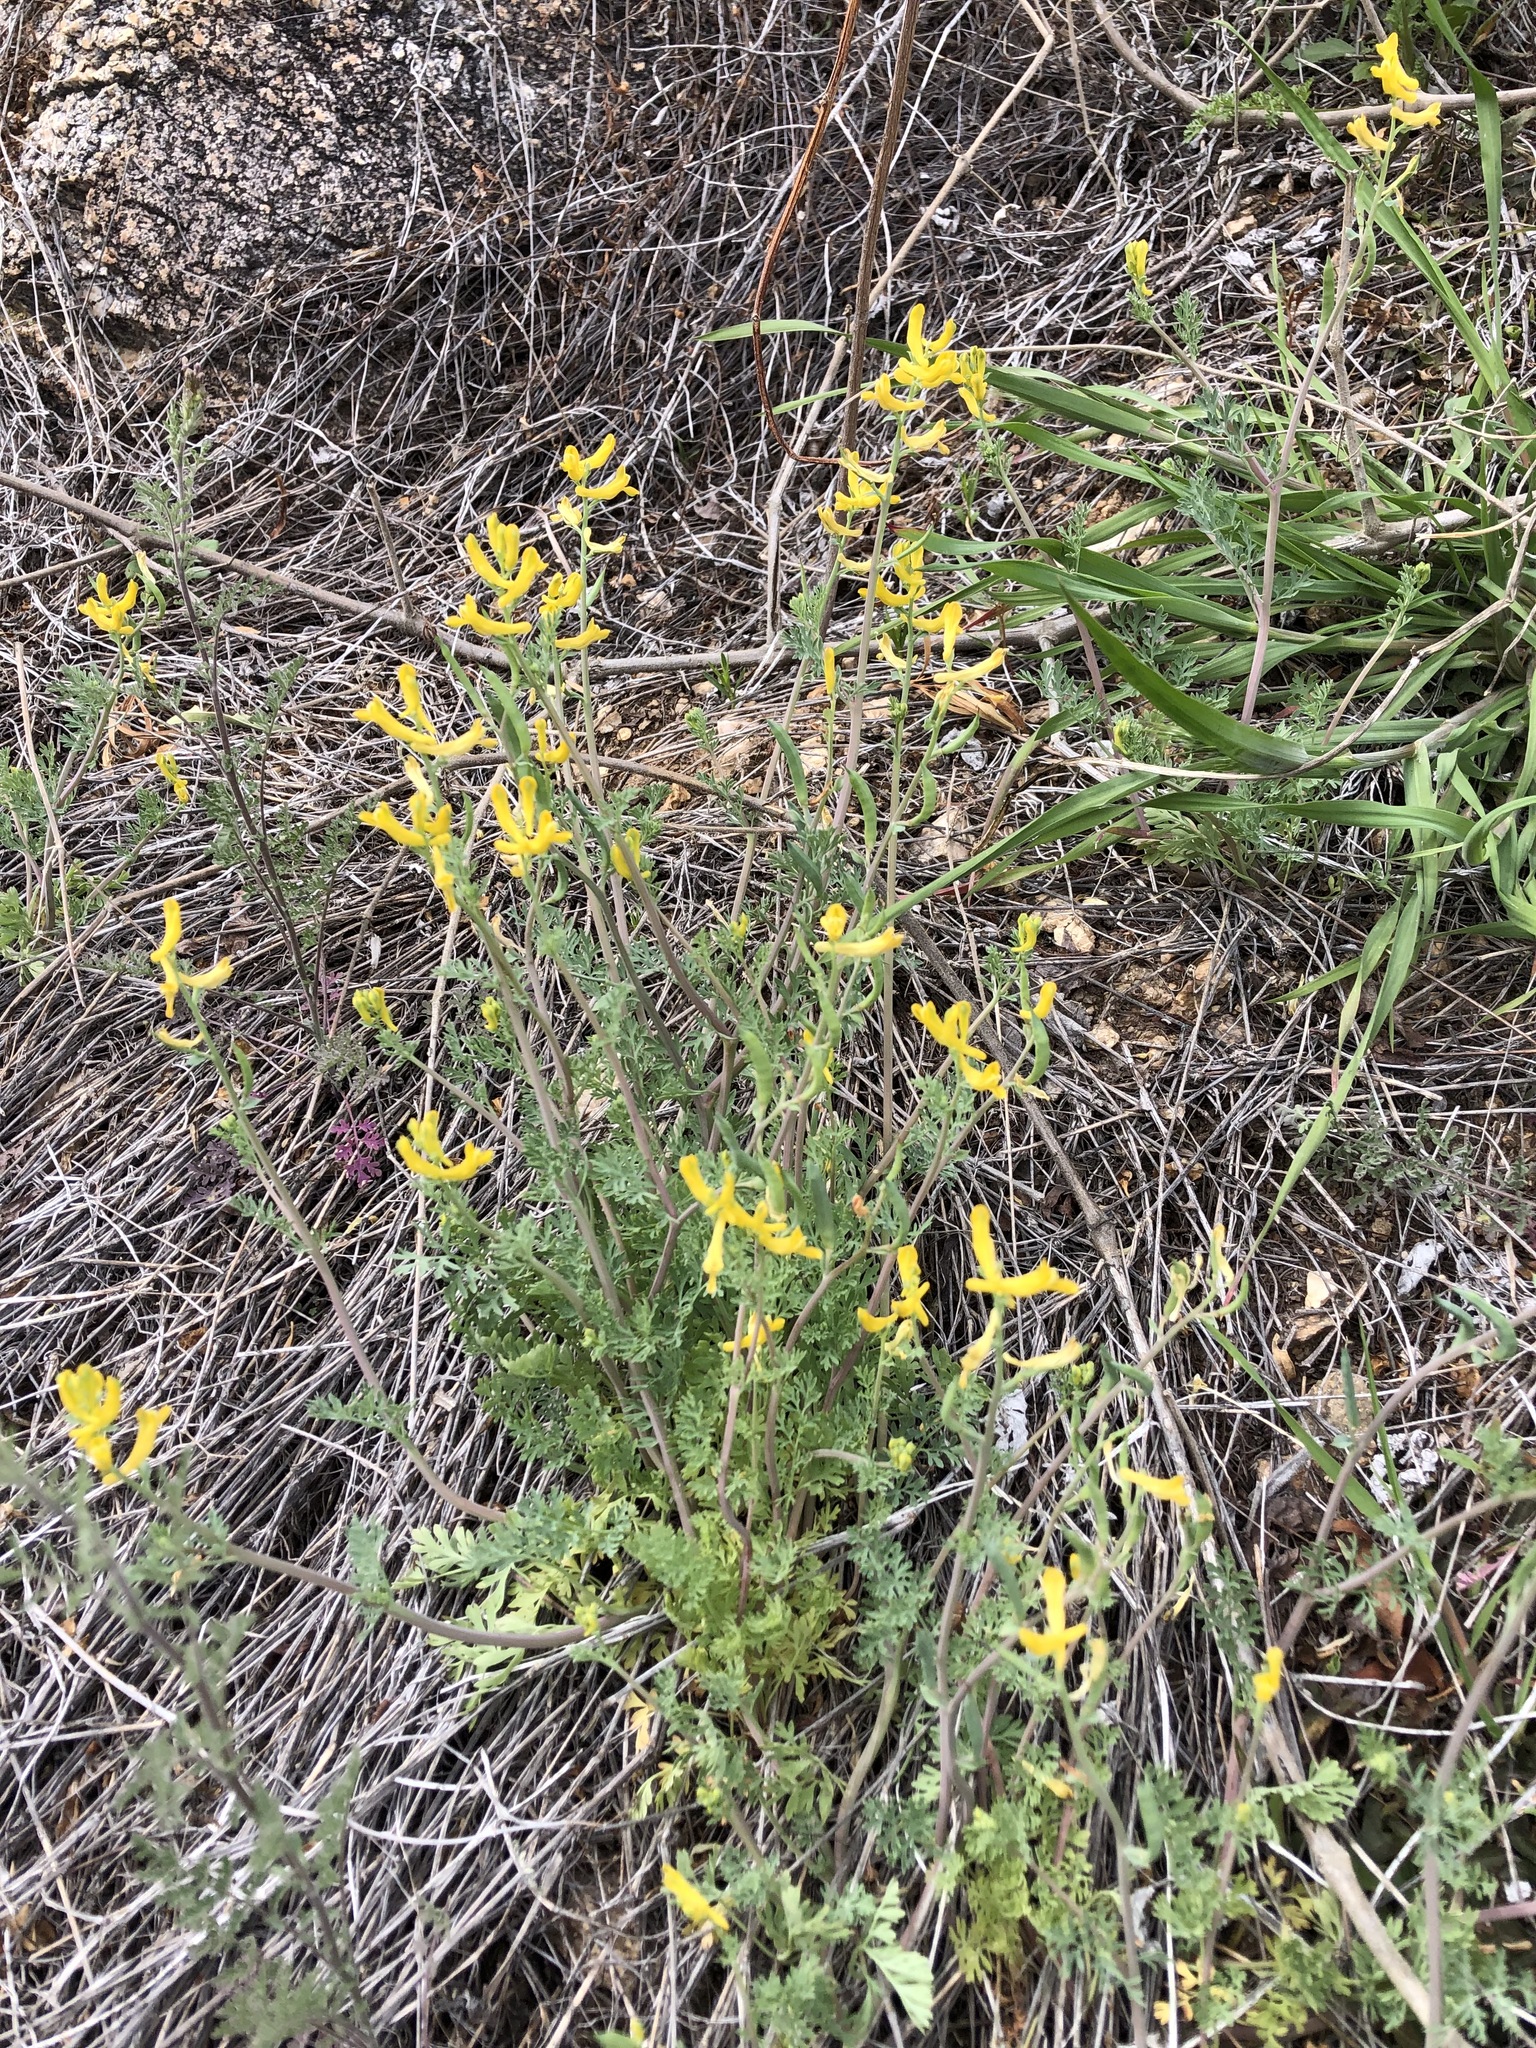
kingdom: Plantae
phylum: Tracheophyta
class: Magnoliopsida
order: Ranunculales
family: Papaveraceae
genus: Corydalis
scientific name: Corydalis aurea
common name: Golden corydalis
